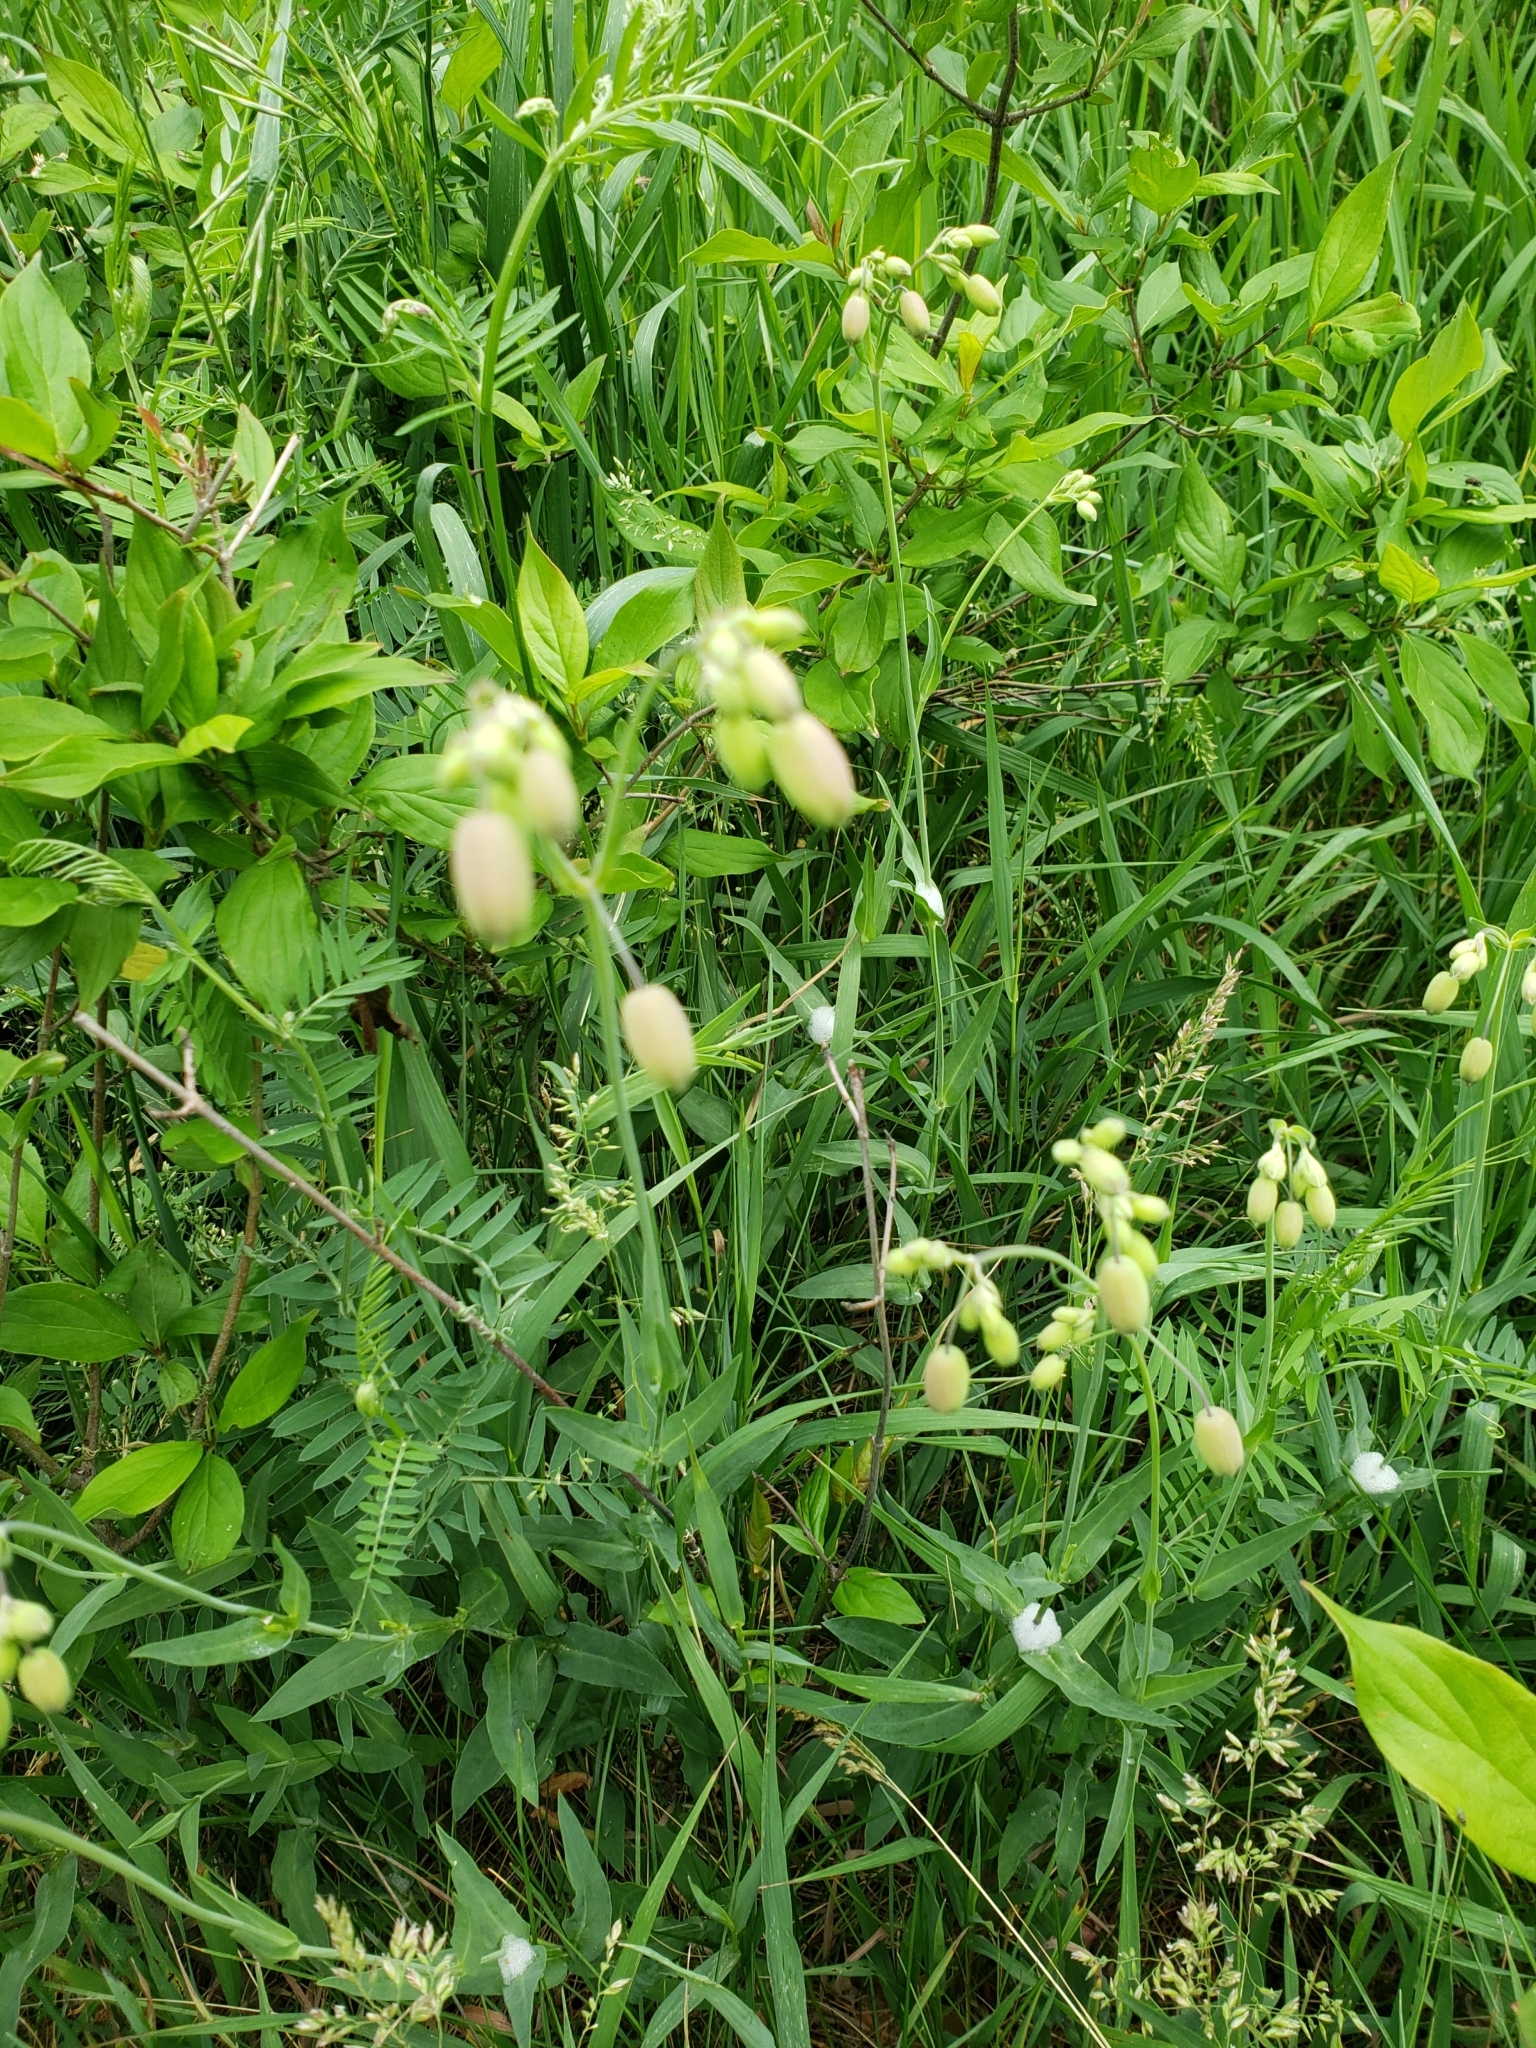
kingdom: Plantae
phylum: Tracheophyta
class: Magnoliopsida
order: Caryophyllales
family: Caryophyllaceae
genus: Silene
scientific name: Silene vulgaris
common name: Bladder campion
